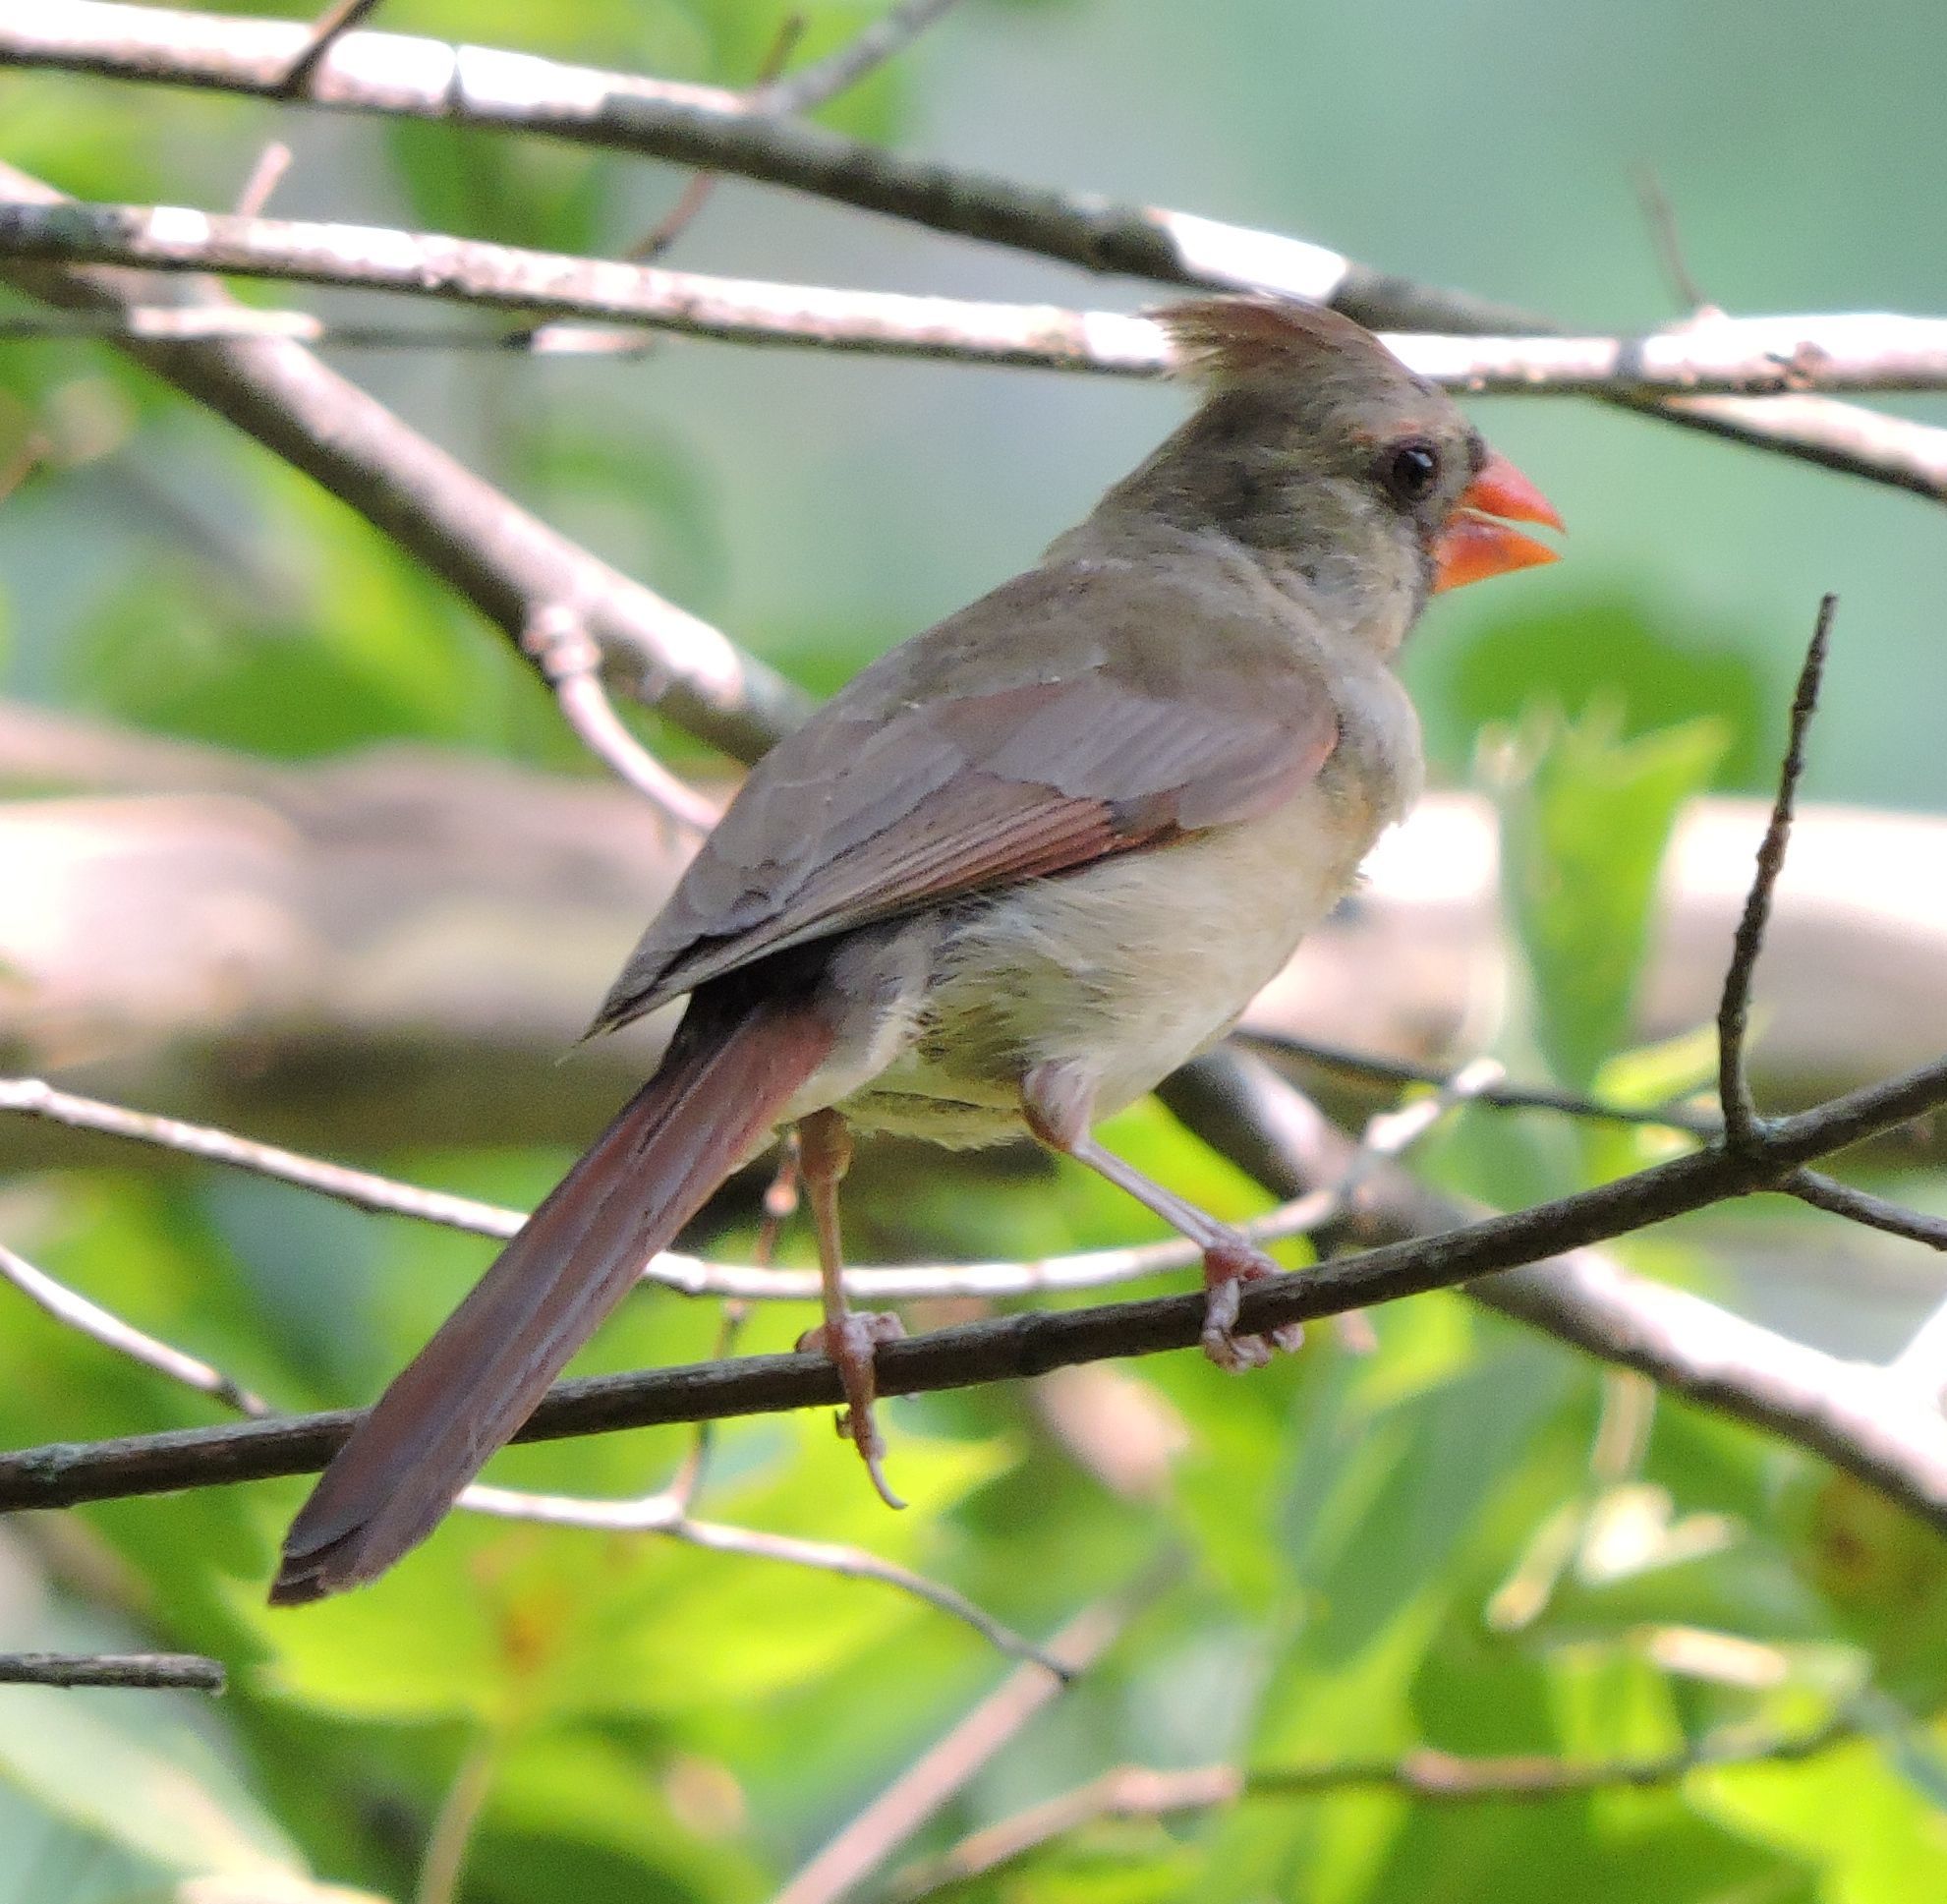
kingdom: Animalia
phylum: Chordata
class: Aves
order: Passeriformes
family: Cardinalidae
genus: Cardinalis
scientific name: Cardinalis cardinalis
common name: Northern cardinal
